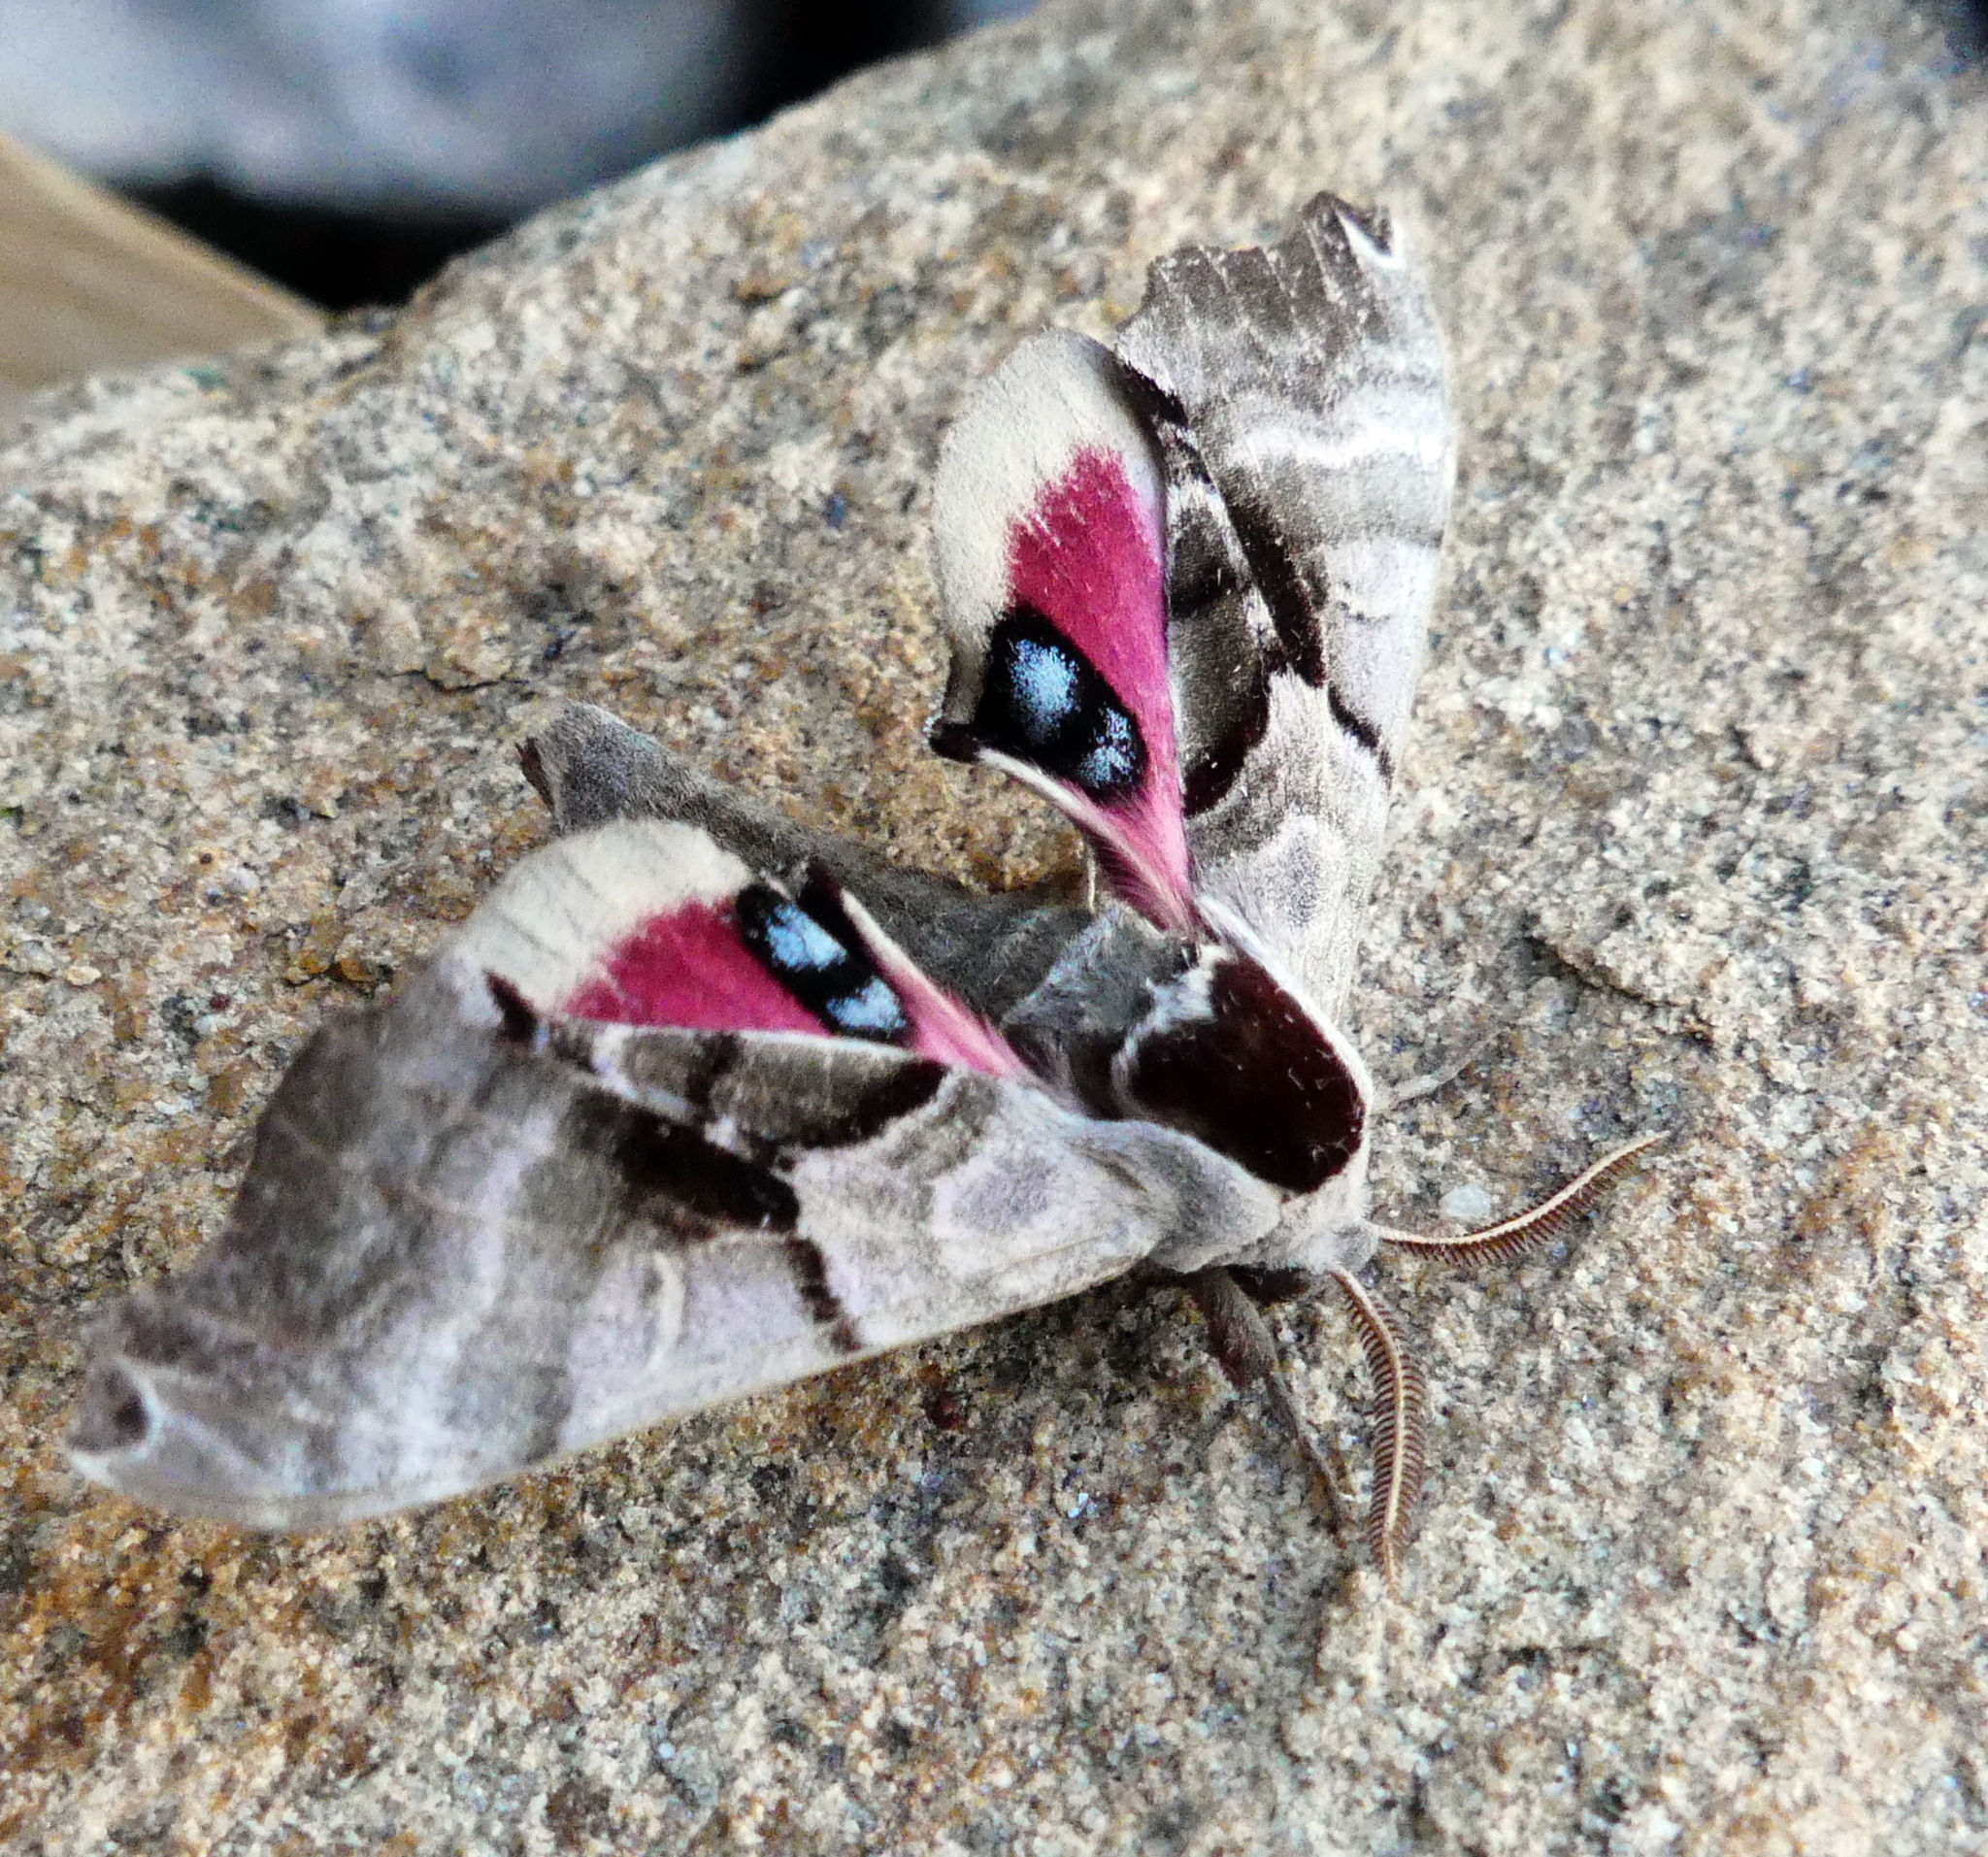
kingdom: Animalia
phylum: Arthropoda
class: Insecta
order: Lepidoptera
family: Sphingidae
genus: Smerinthus
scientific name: Smerinthus jamaicensis
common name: Twin spotted sphinx
